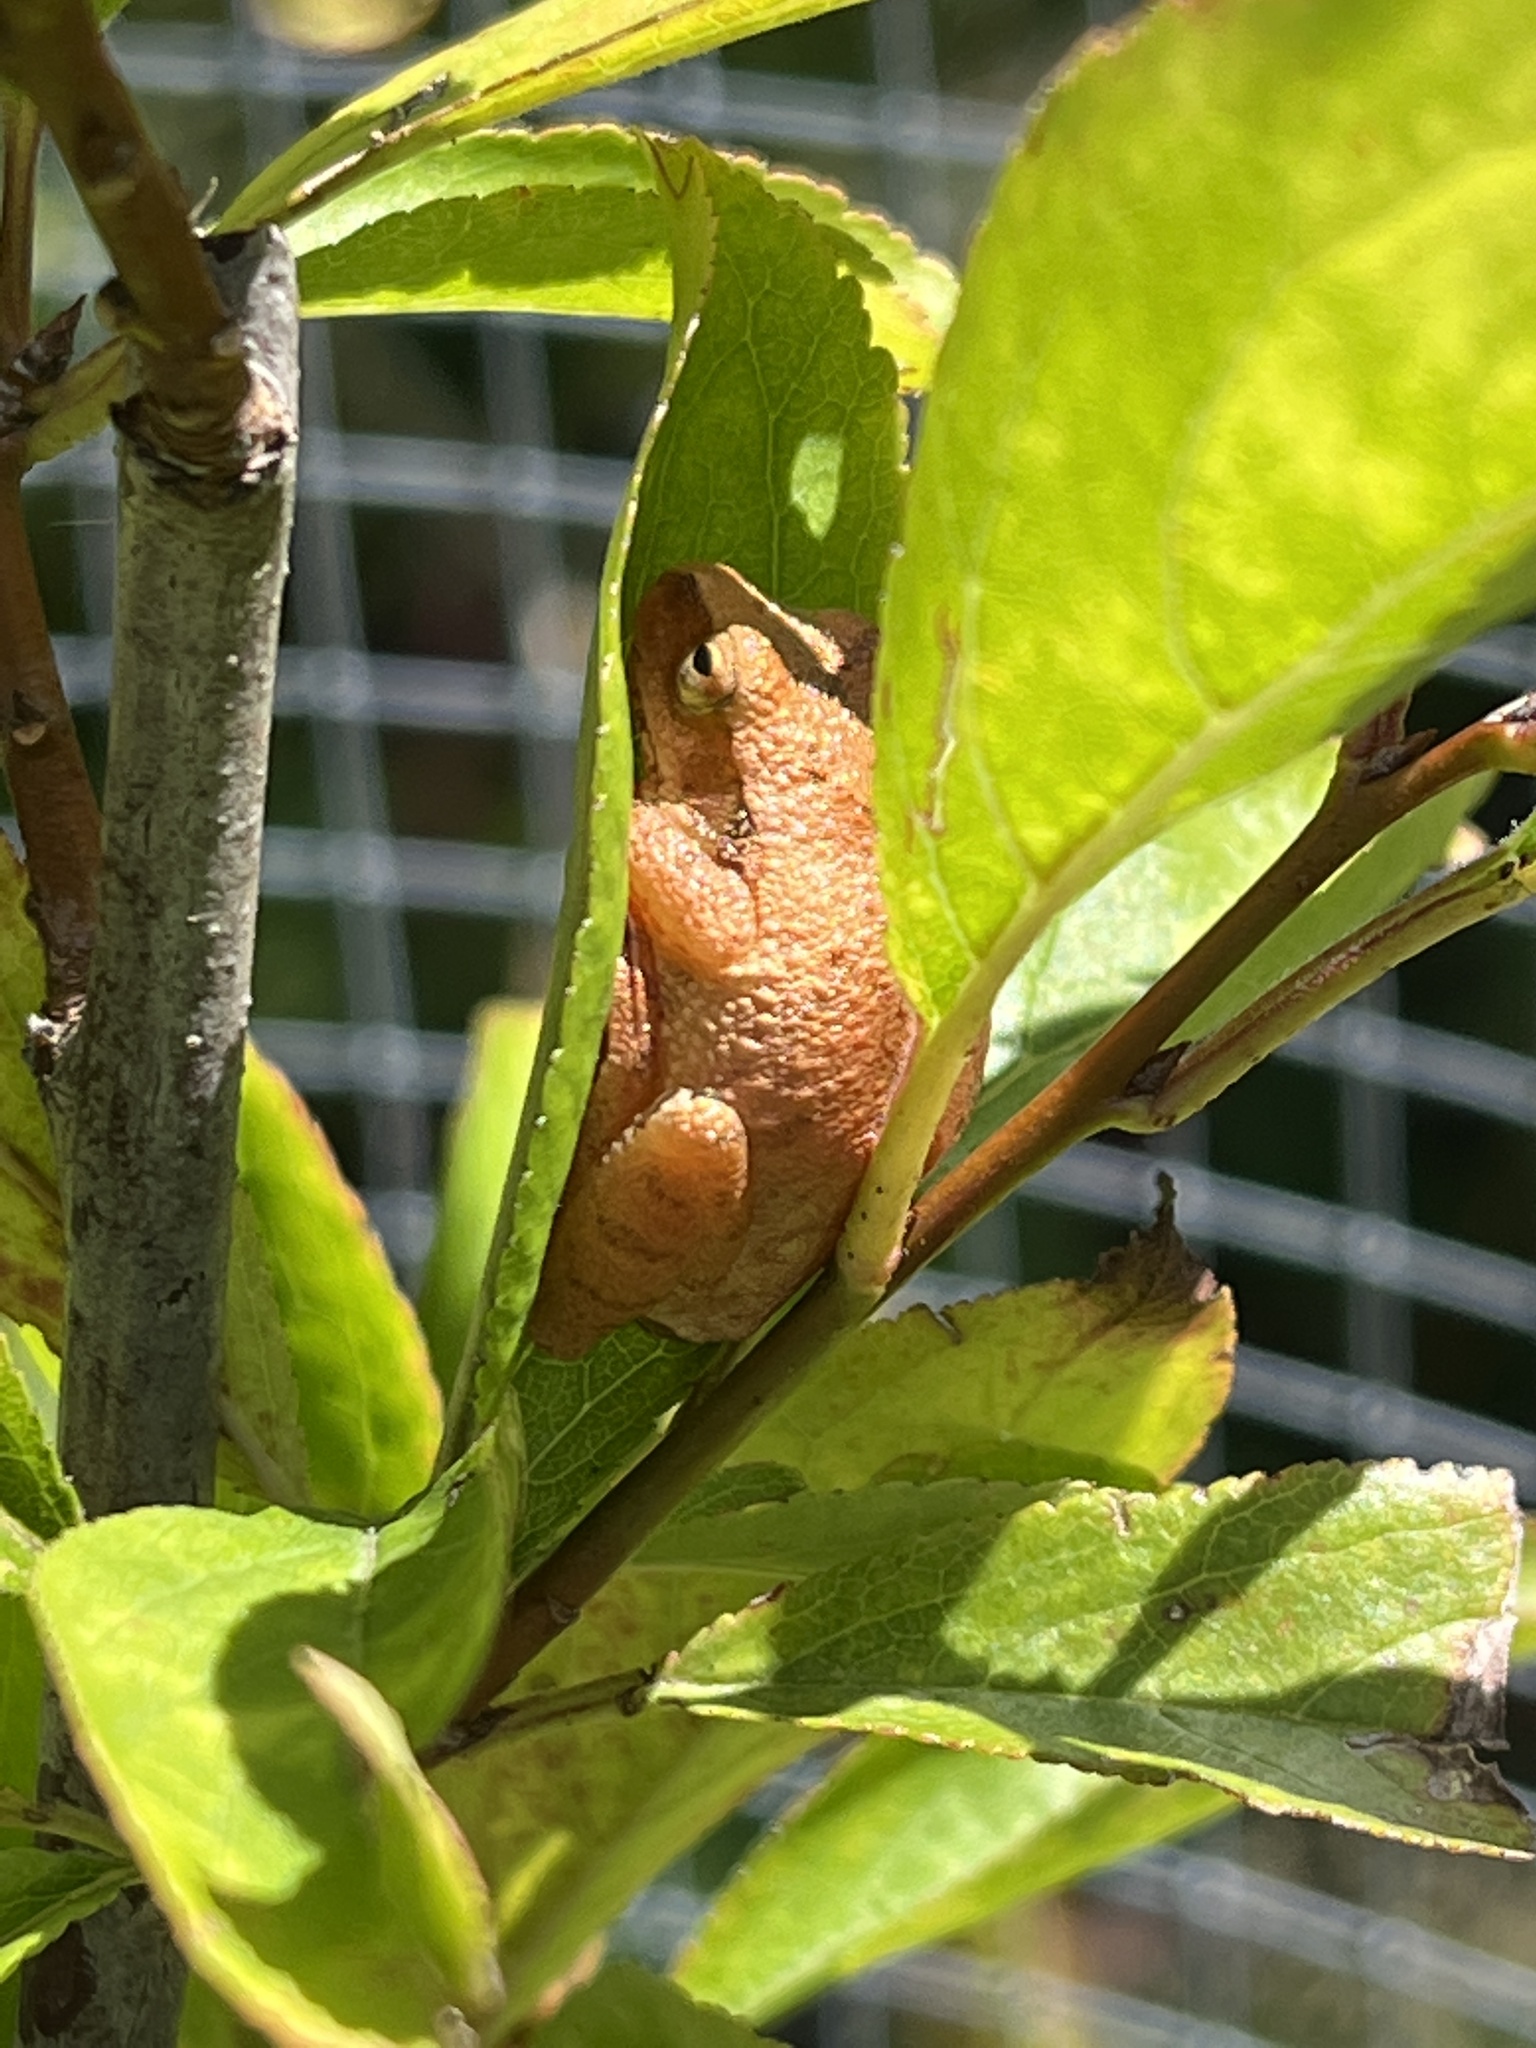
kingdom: Animalia
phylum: Chordata
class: Amphibia
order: Anura
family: Hylidae
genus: Pseudacris
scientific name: Pseudacris crucifer
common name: Spring peeper
